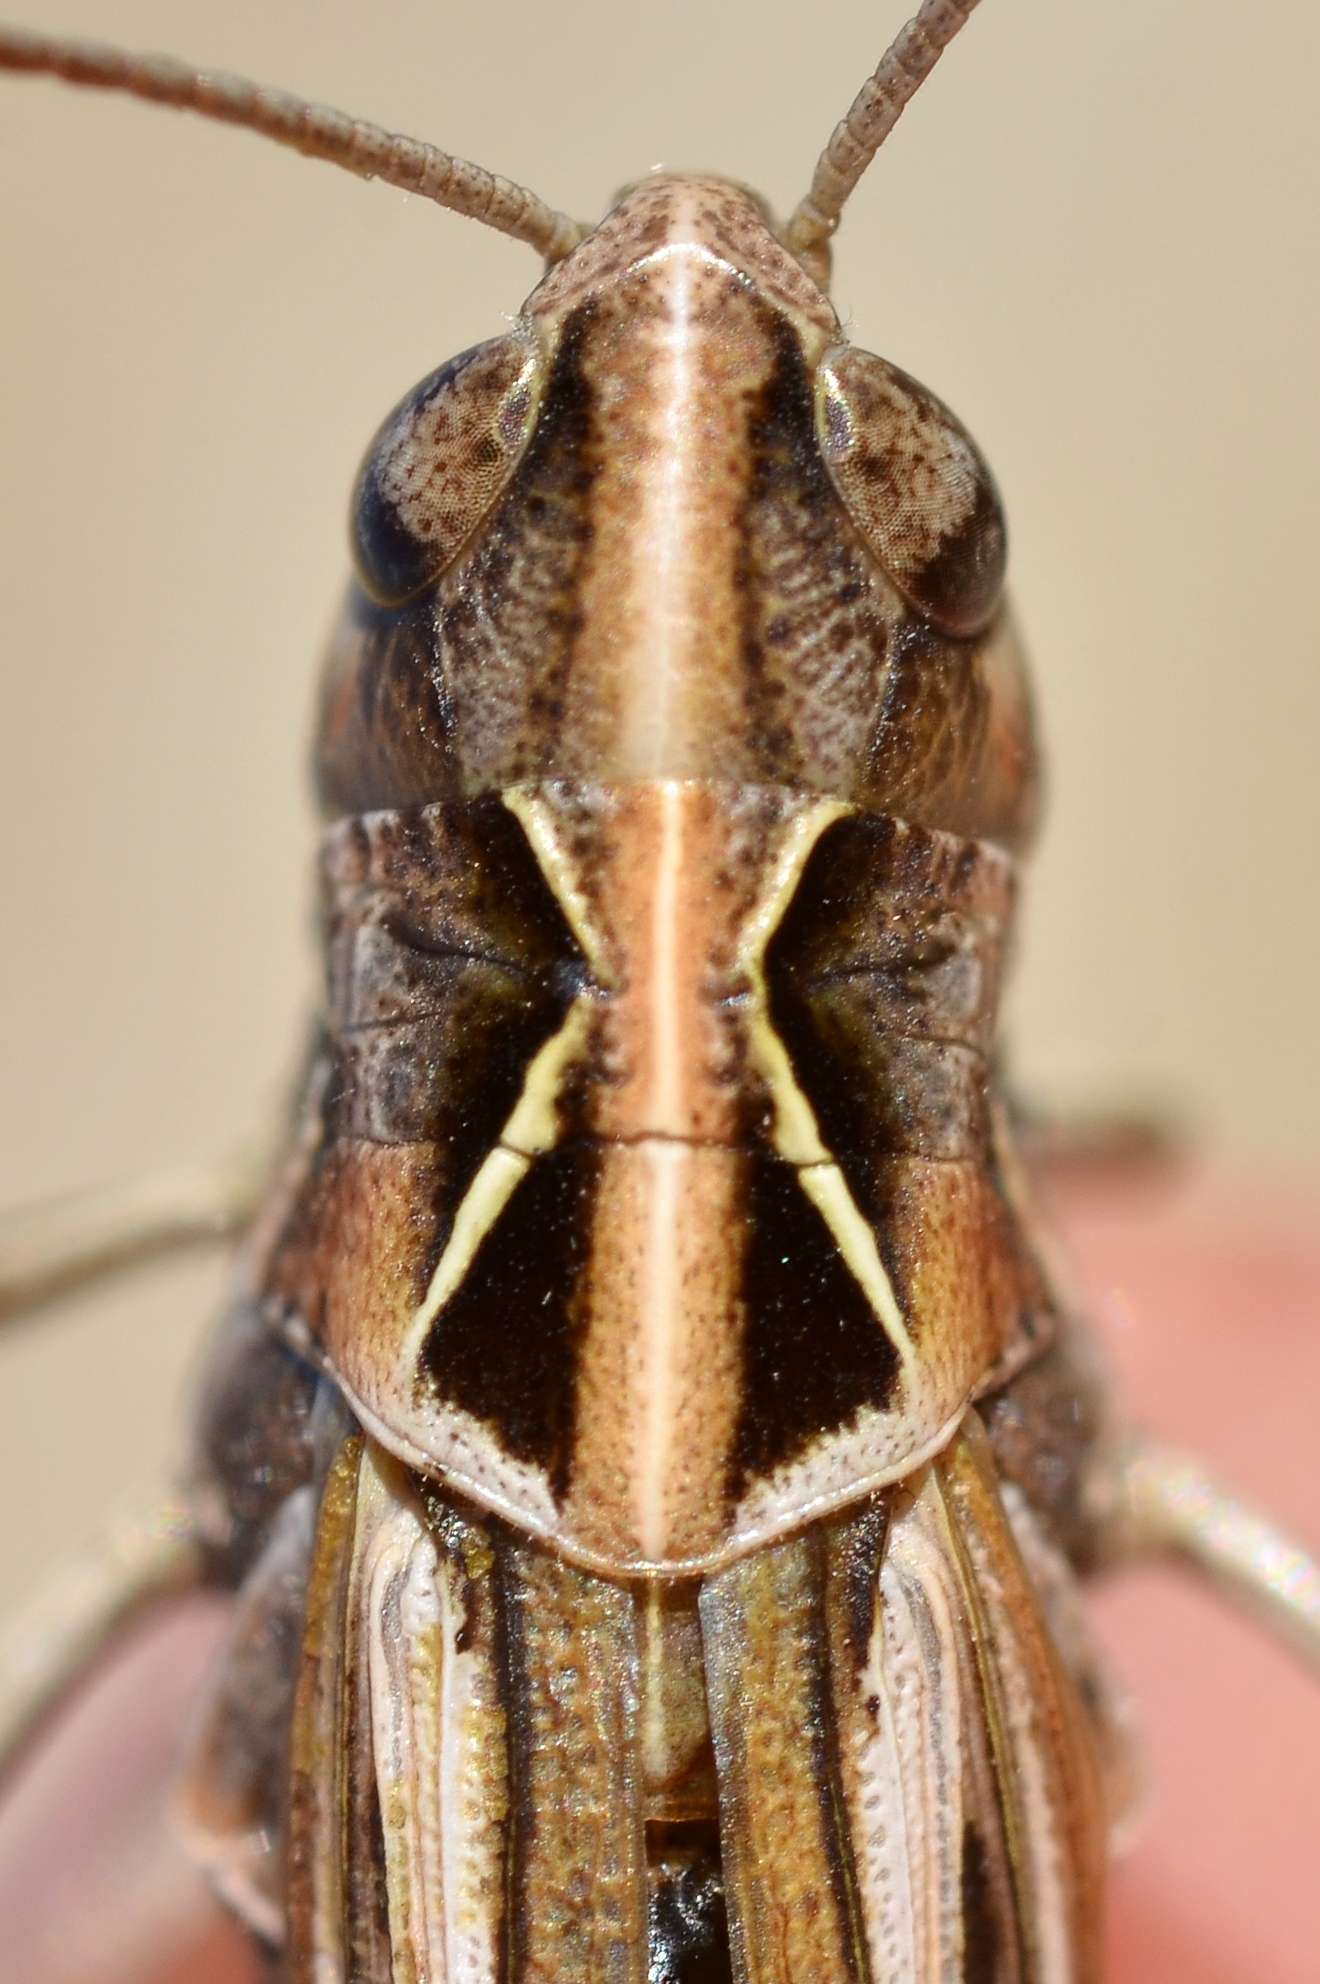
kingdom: Animalia
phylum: Arthropoda
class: Insecta
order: Orthoptera
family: Acrididae
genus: Omocestus
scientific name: Omocestus haemorrhoidalis
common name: Orange-tipped grasshopper
